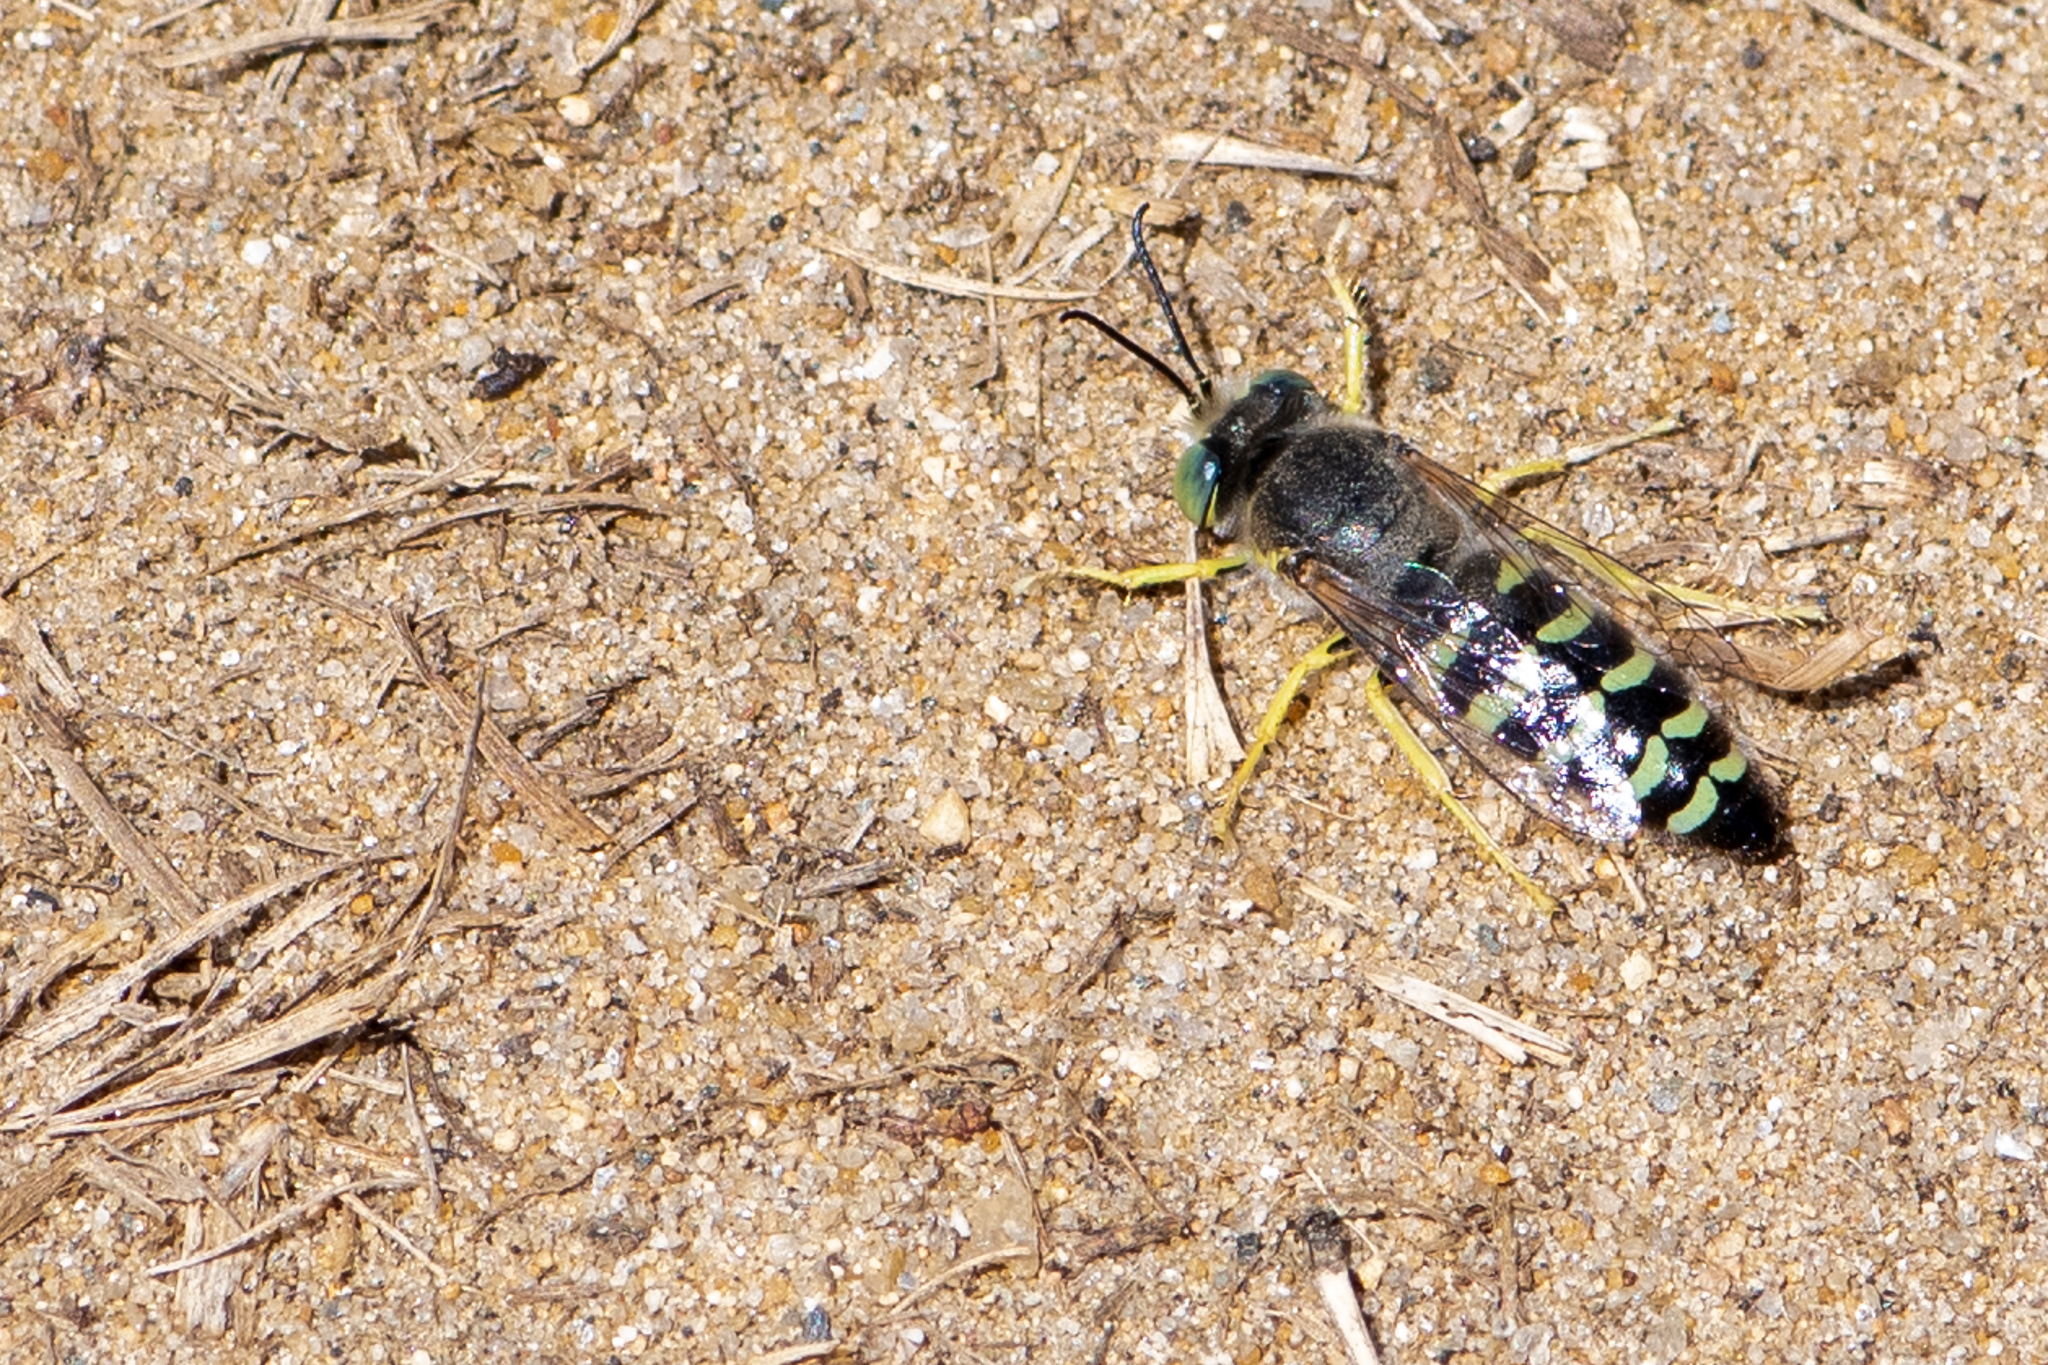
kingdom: Animalia
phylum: Arthropoda
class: Insecta
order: Hymenoptera
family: Crabronidae
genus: Bembix
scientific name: Bembix americana
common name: American sand wasp
